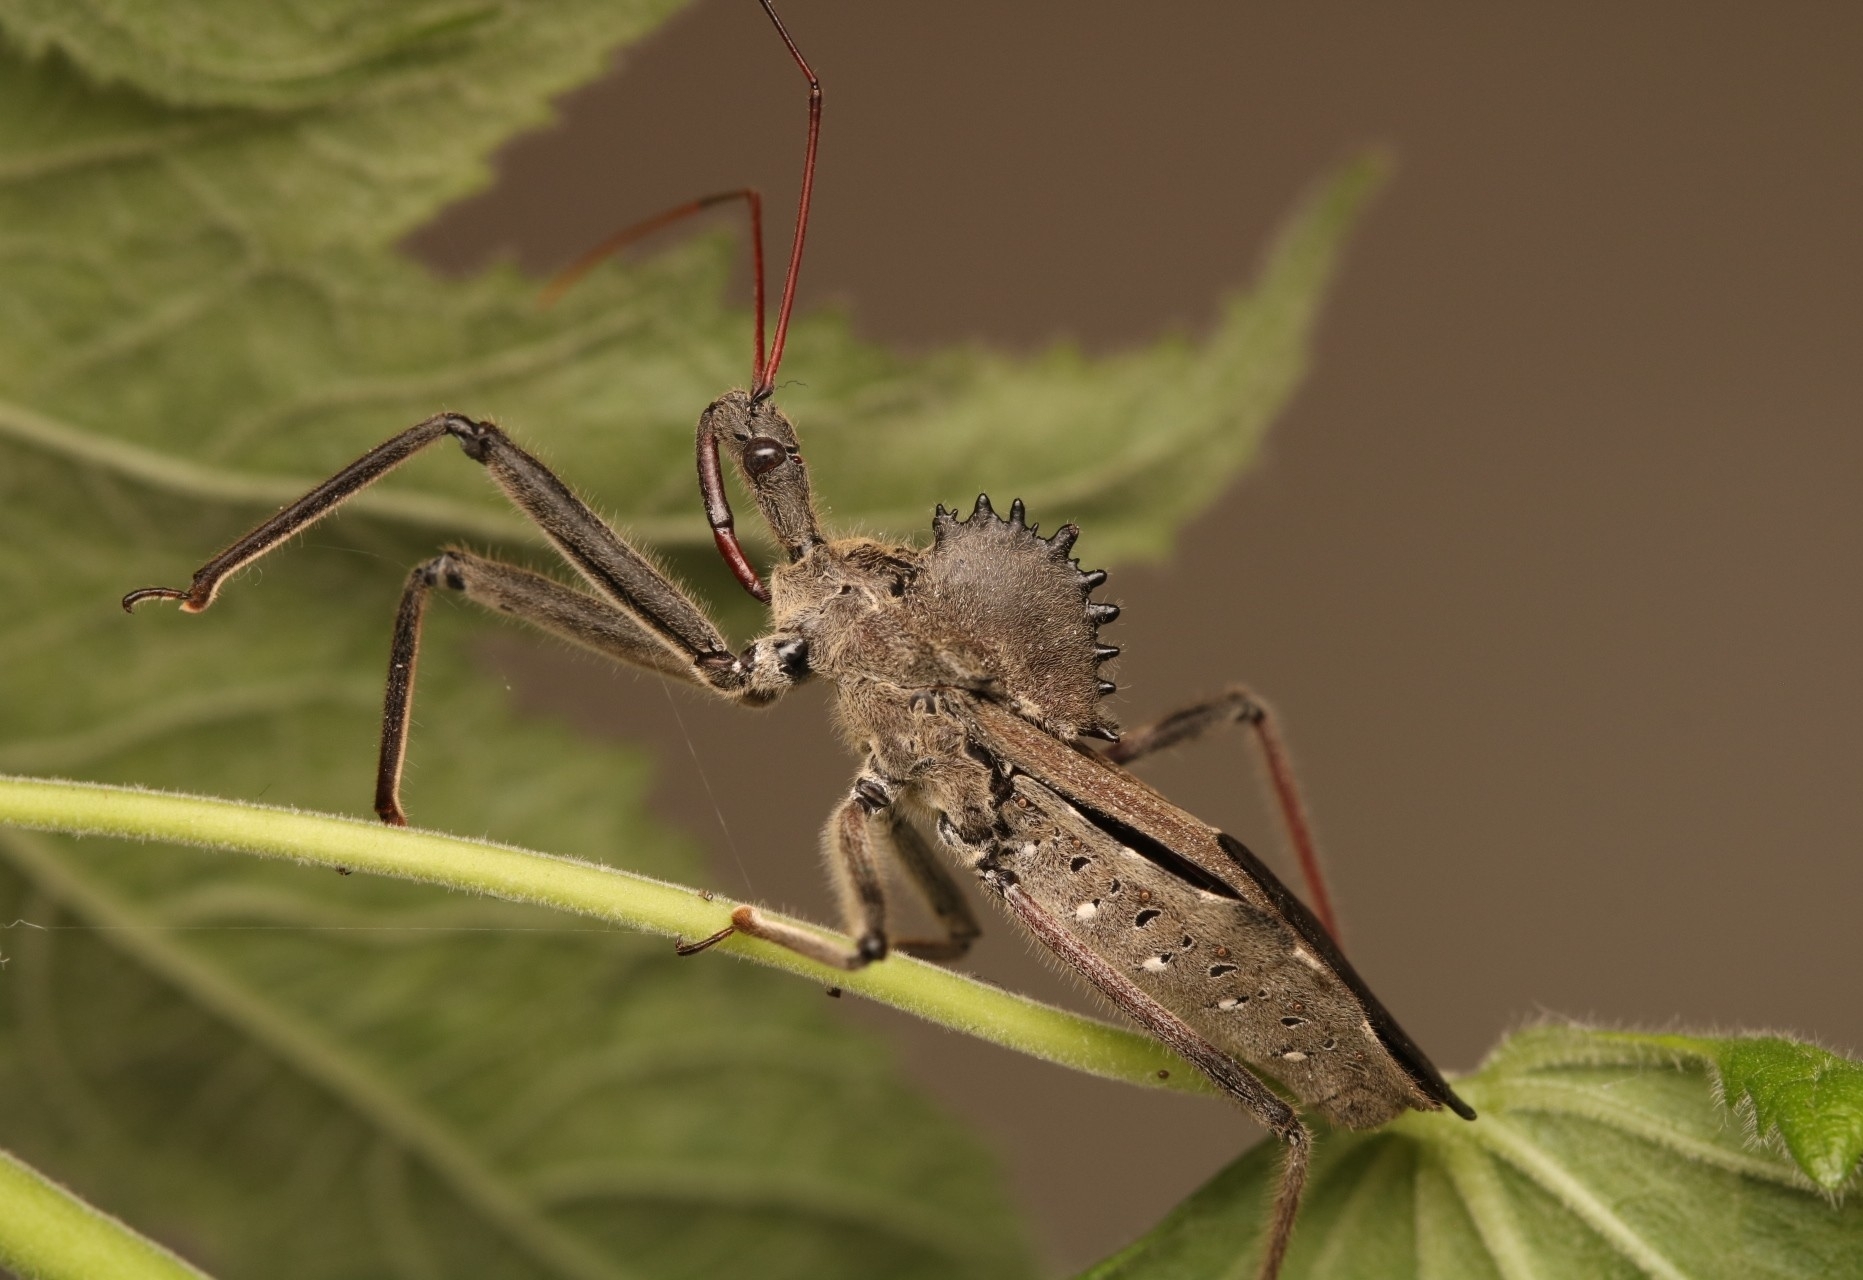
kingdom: Animalia
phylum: Arthropoda
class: Insecta
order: Hemiptera
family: Reduviidae
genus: Arilus
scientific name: Arilus cristatus
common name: North american wheel bug
